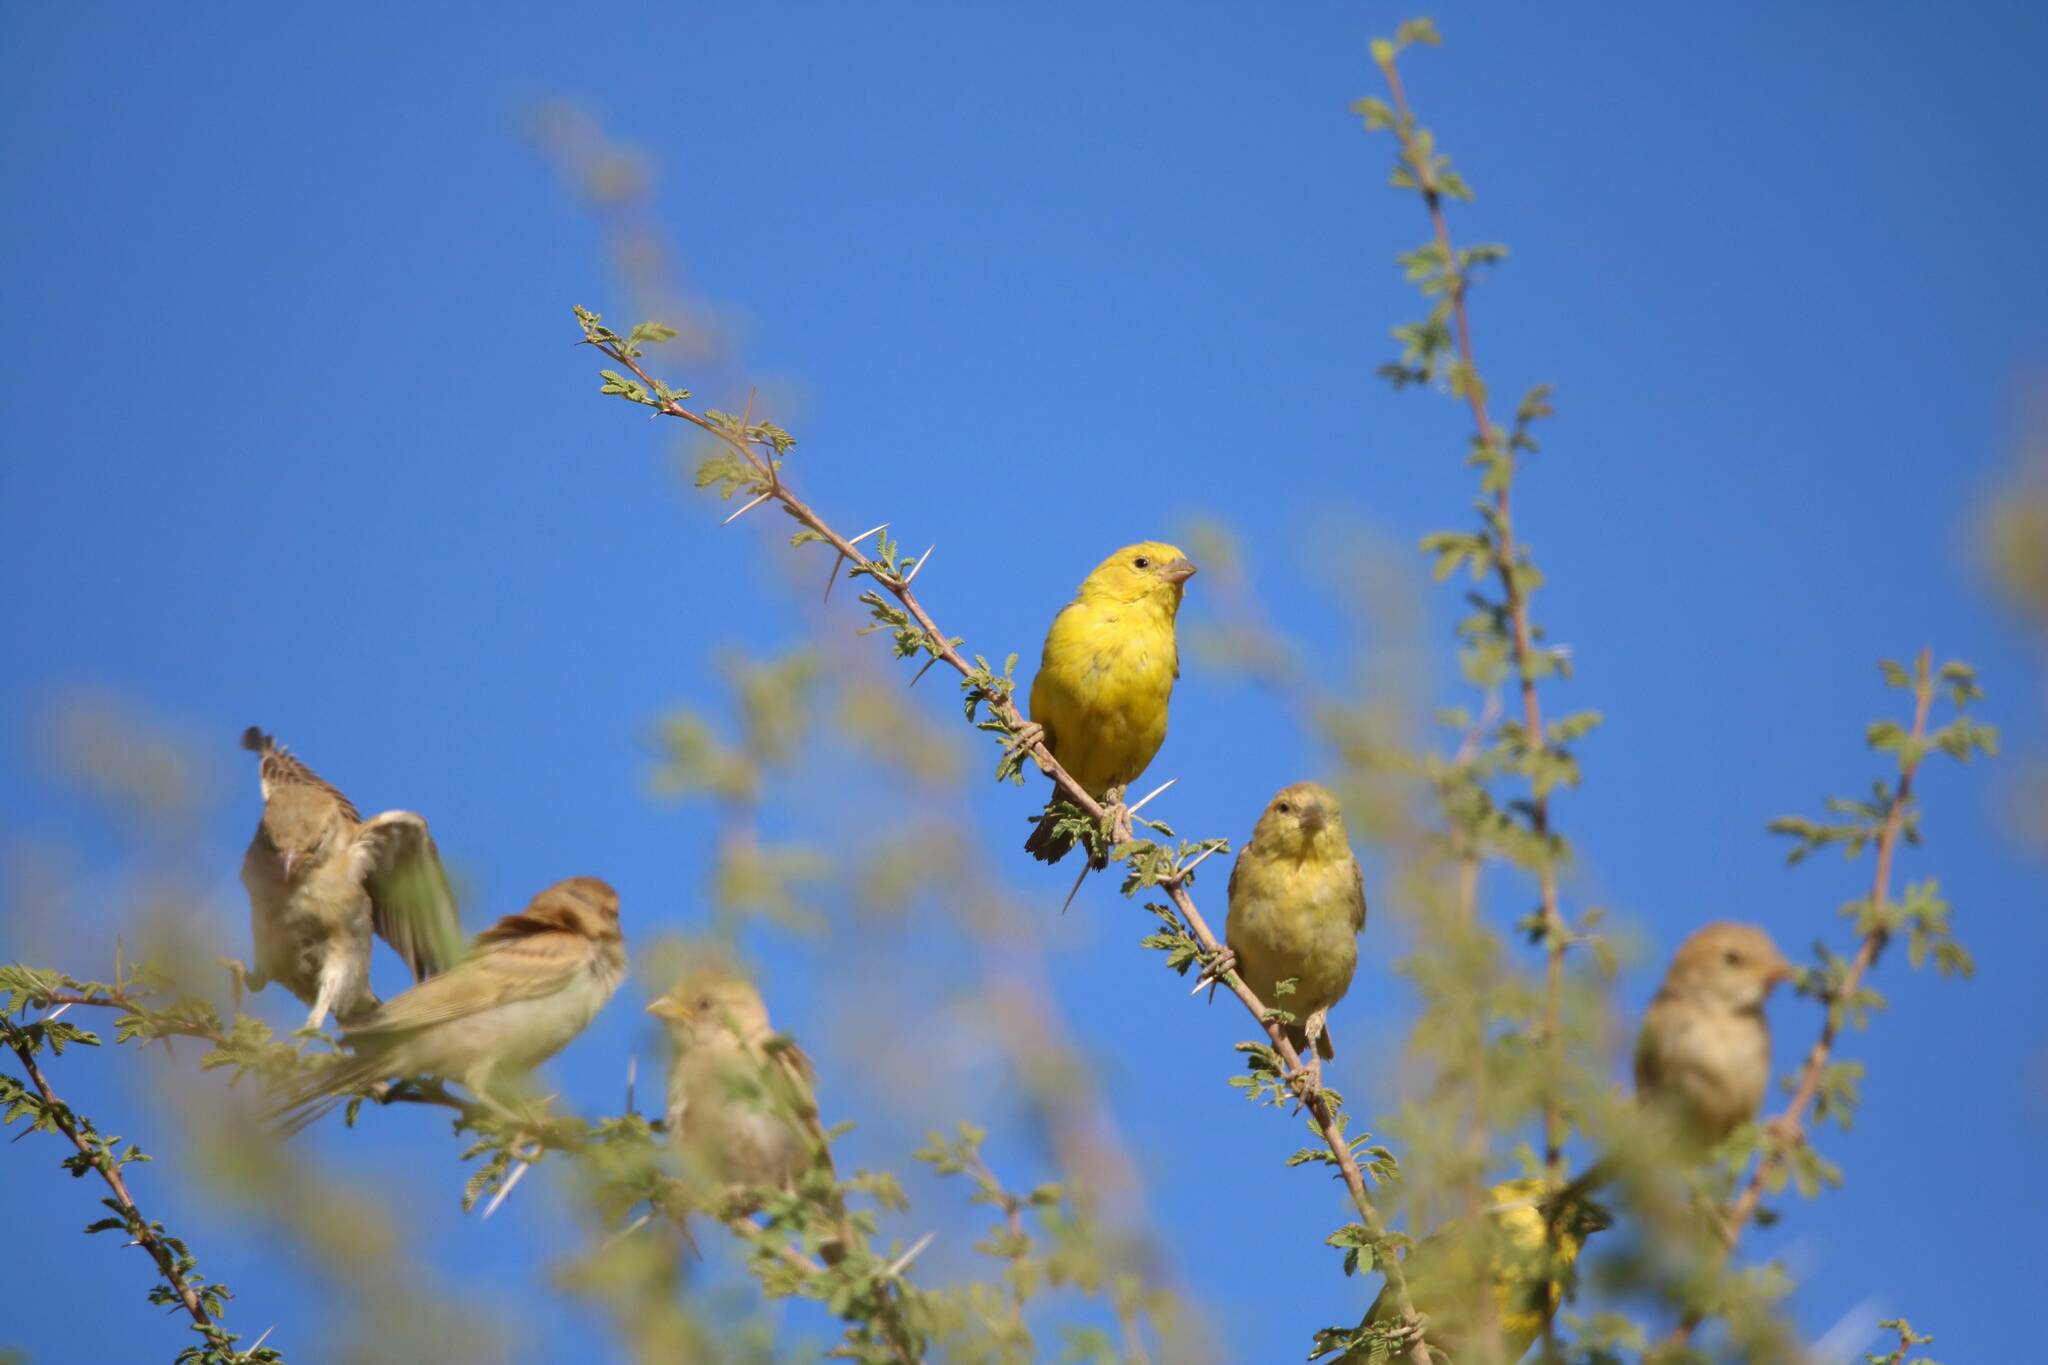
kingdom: Animalia
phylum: Chordata
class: Aves
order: Passeriformes
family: Passeridae
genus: Passer
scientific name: Passer luteus
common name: Sudan golden sparrow
